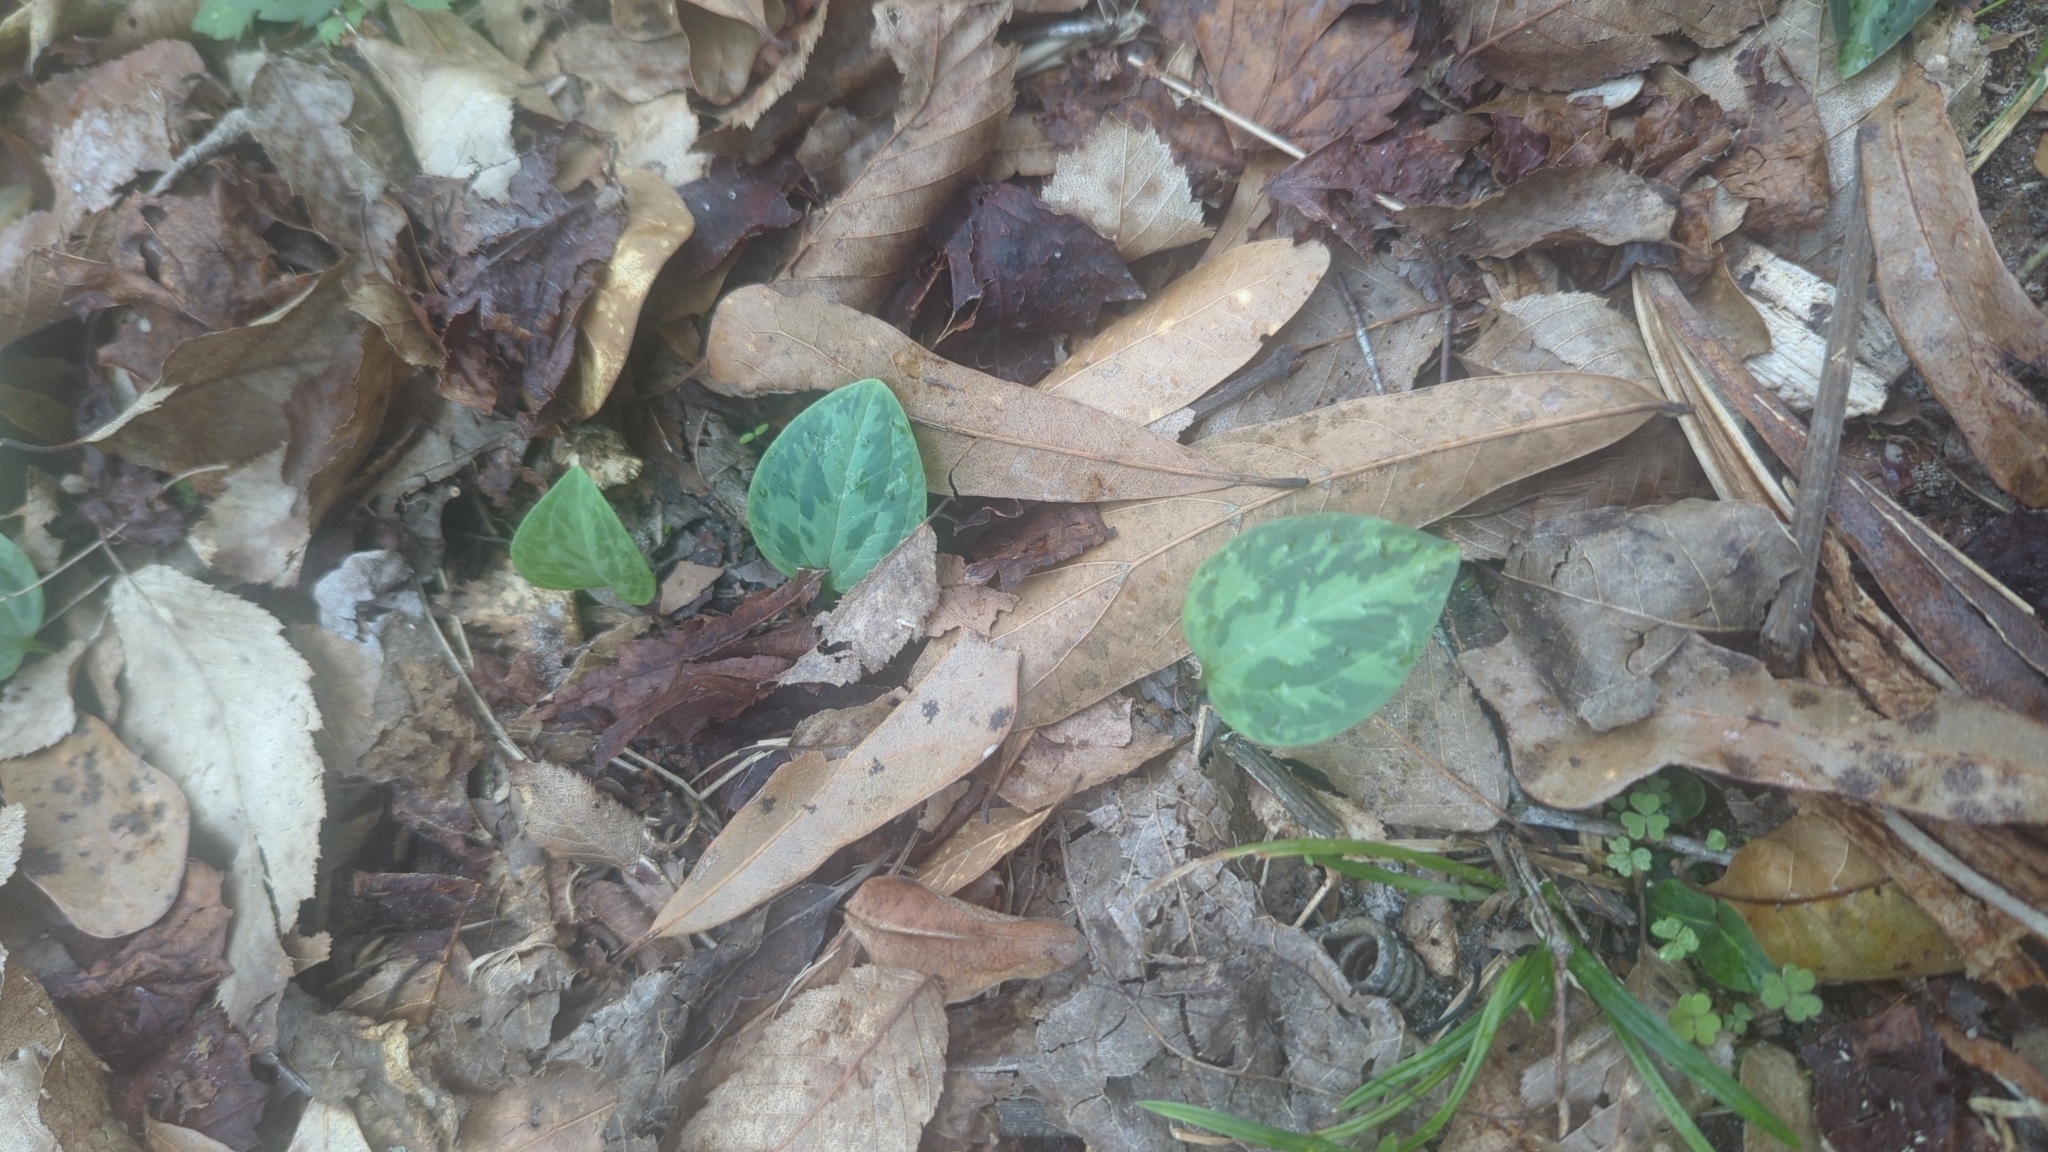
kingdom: Plantae
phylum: Tracheophyta
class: Liliopsida
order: Liliales
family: Melanthiaceae
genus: Trillium
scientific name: Trillium foetidissimum
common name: Mississippi river trillium
